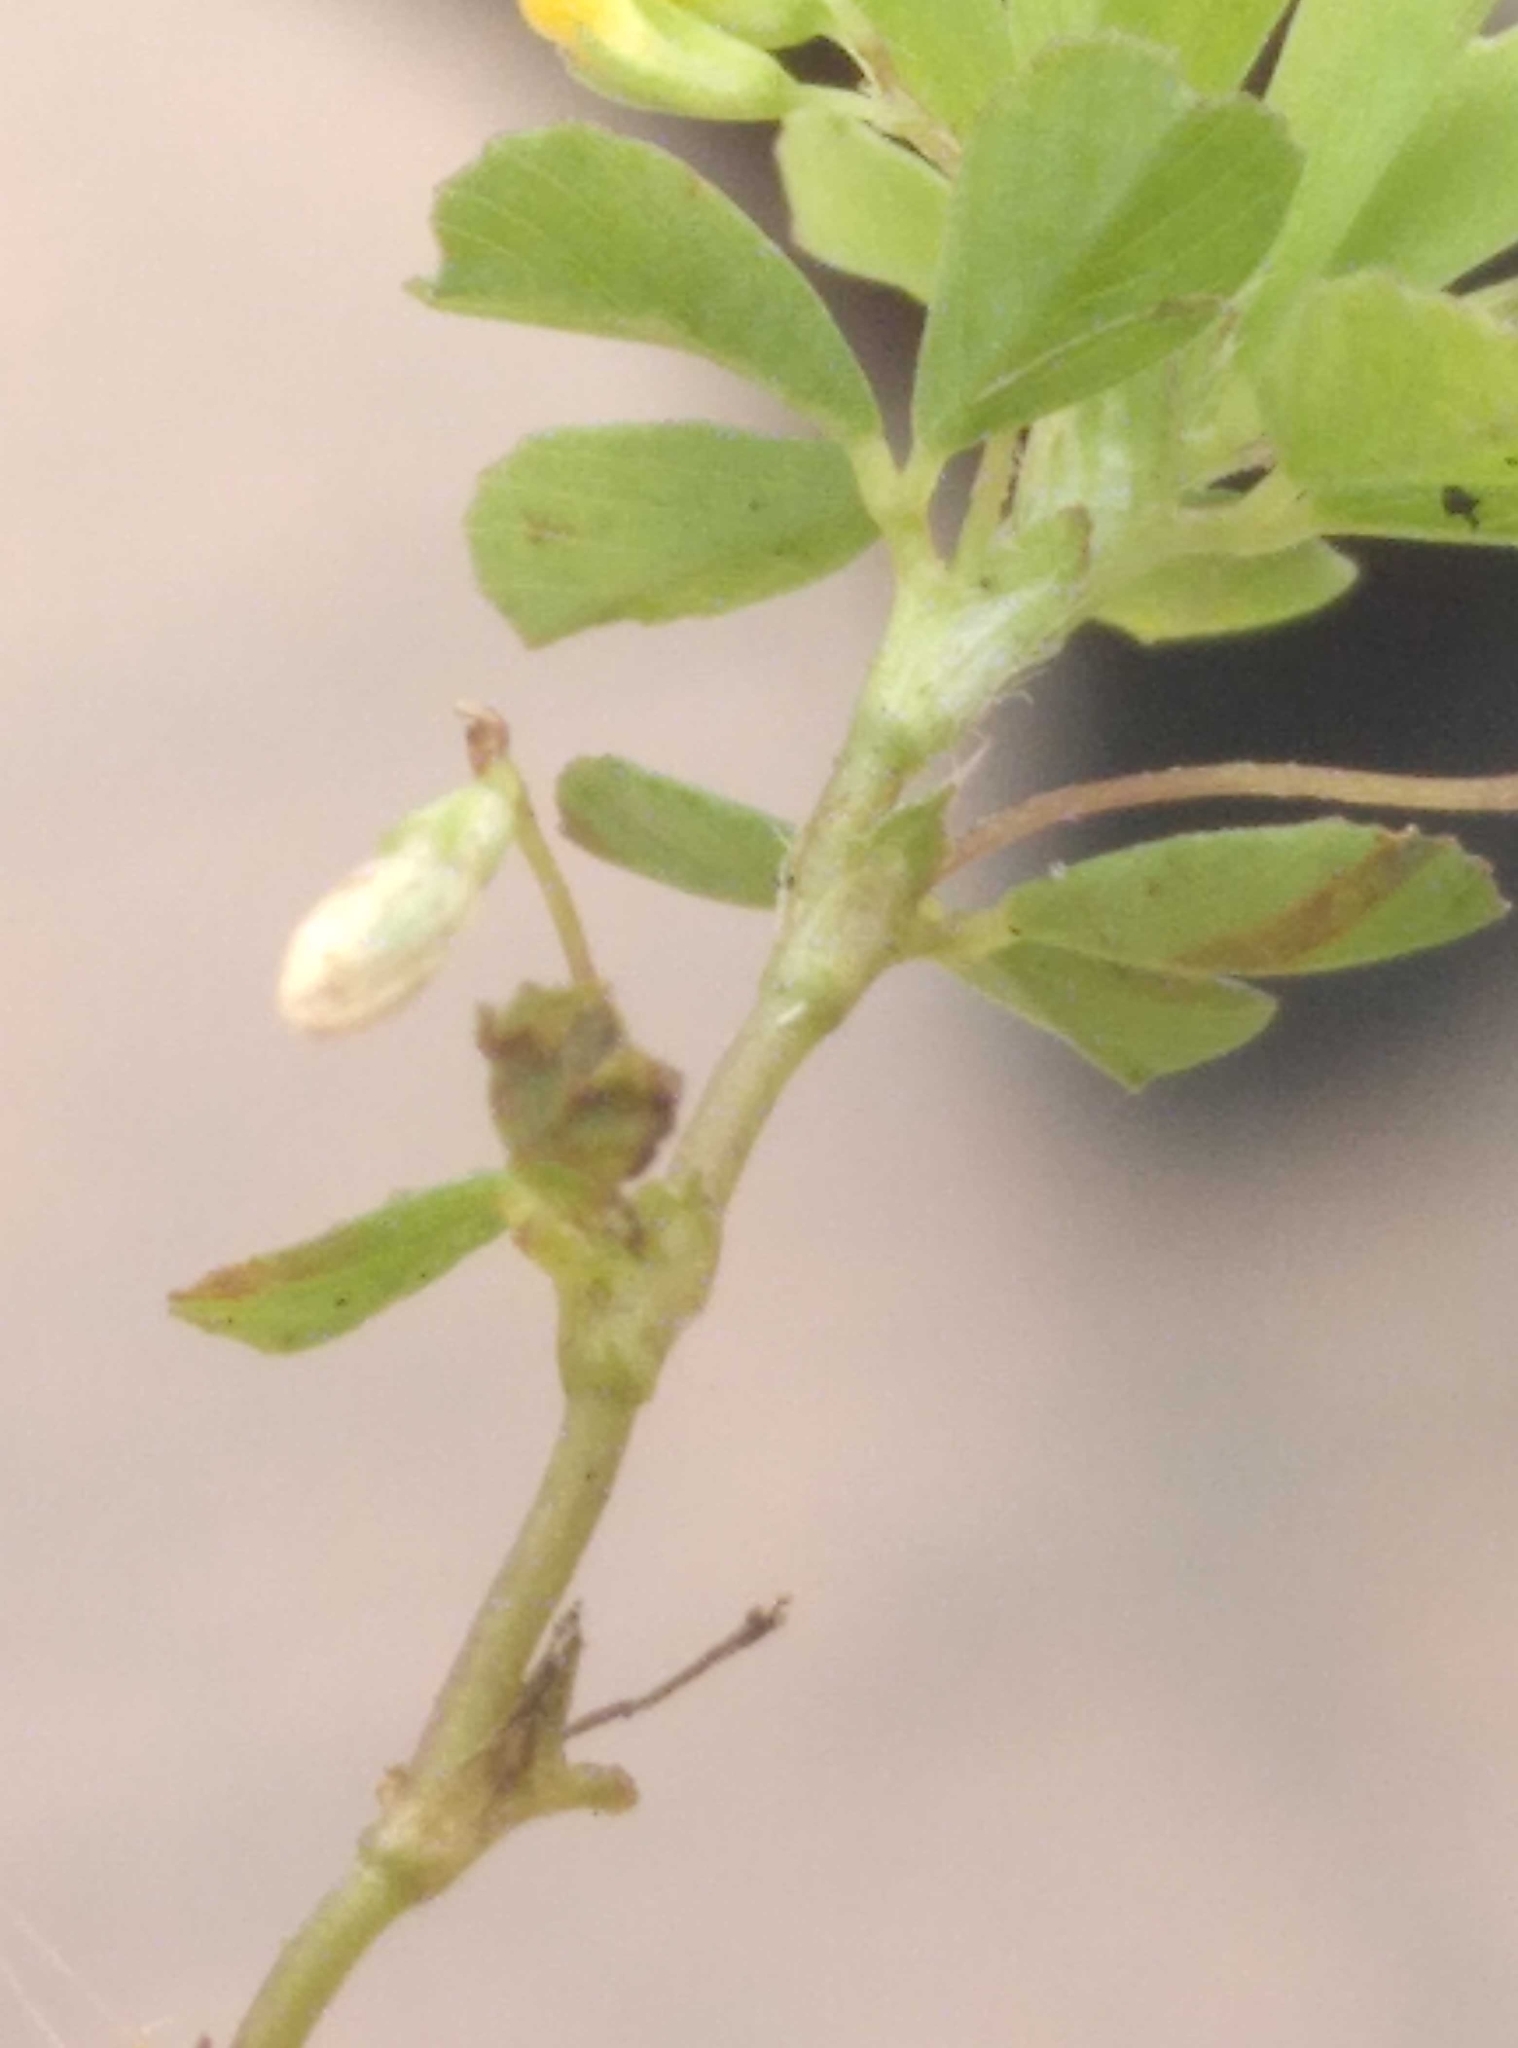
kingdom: Plantae
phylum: Tracheophyta
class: Magnoliopsida
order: Fabales
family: Fabaceae
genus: Trifolium
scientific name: Trifolium micranthum
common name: Slender trefoil
